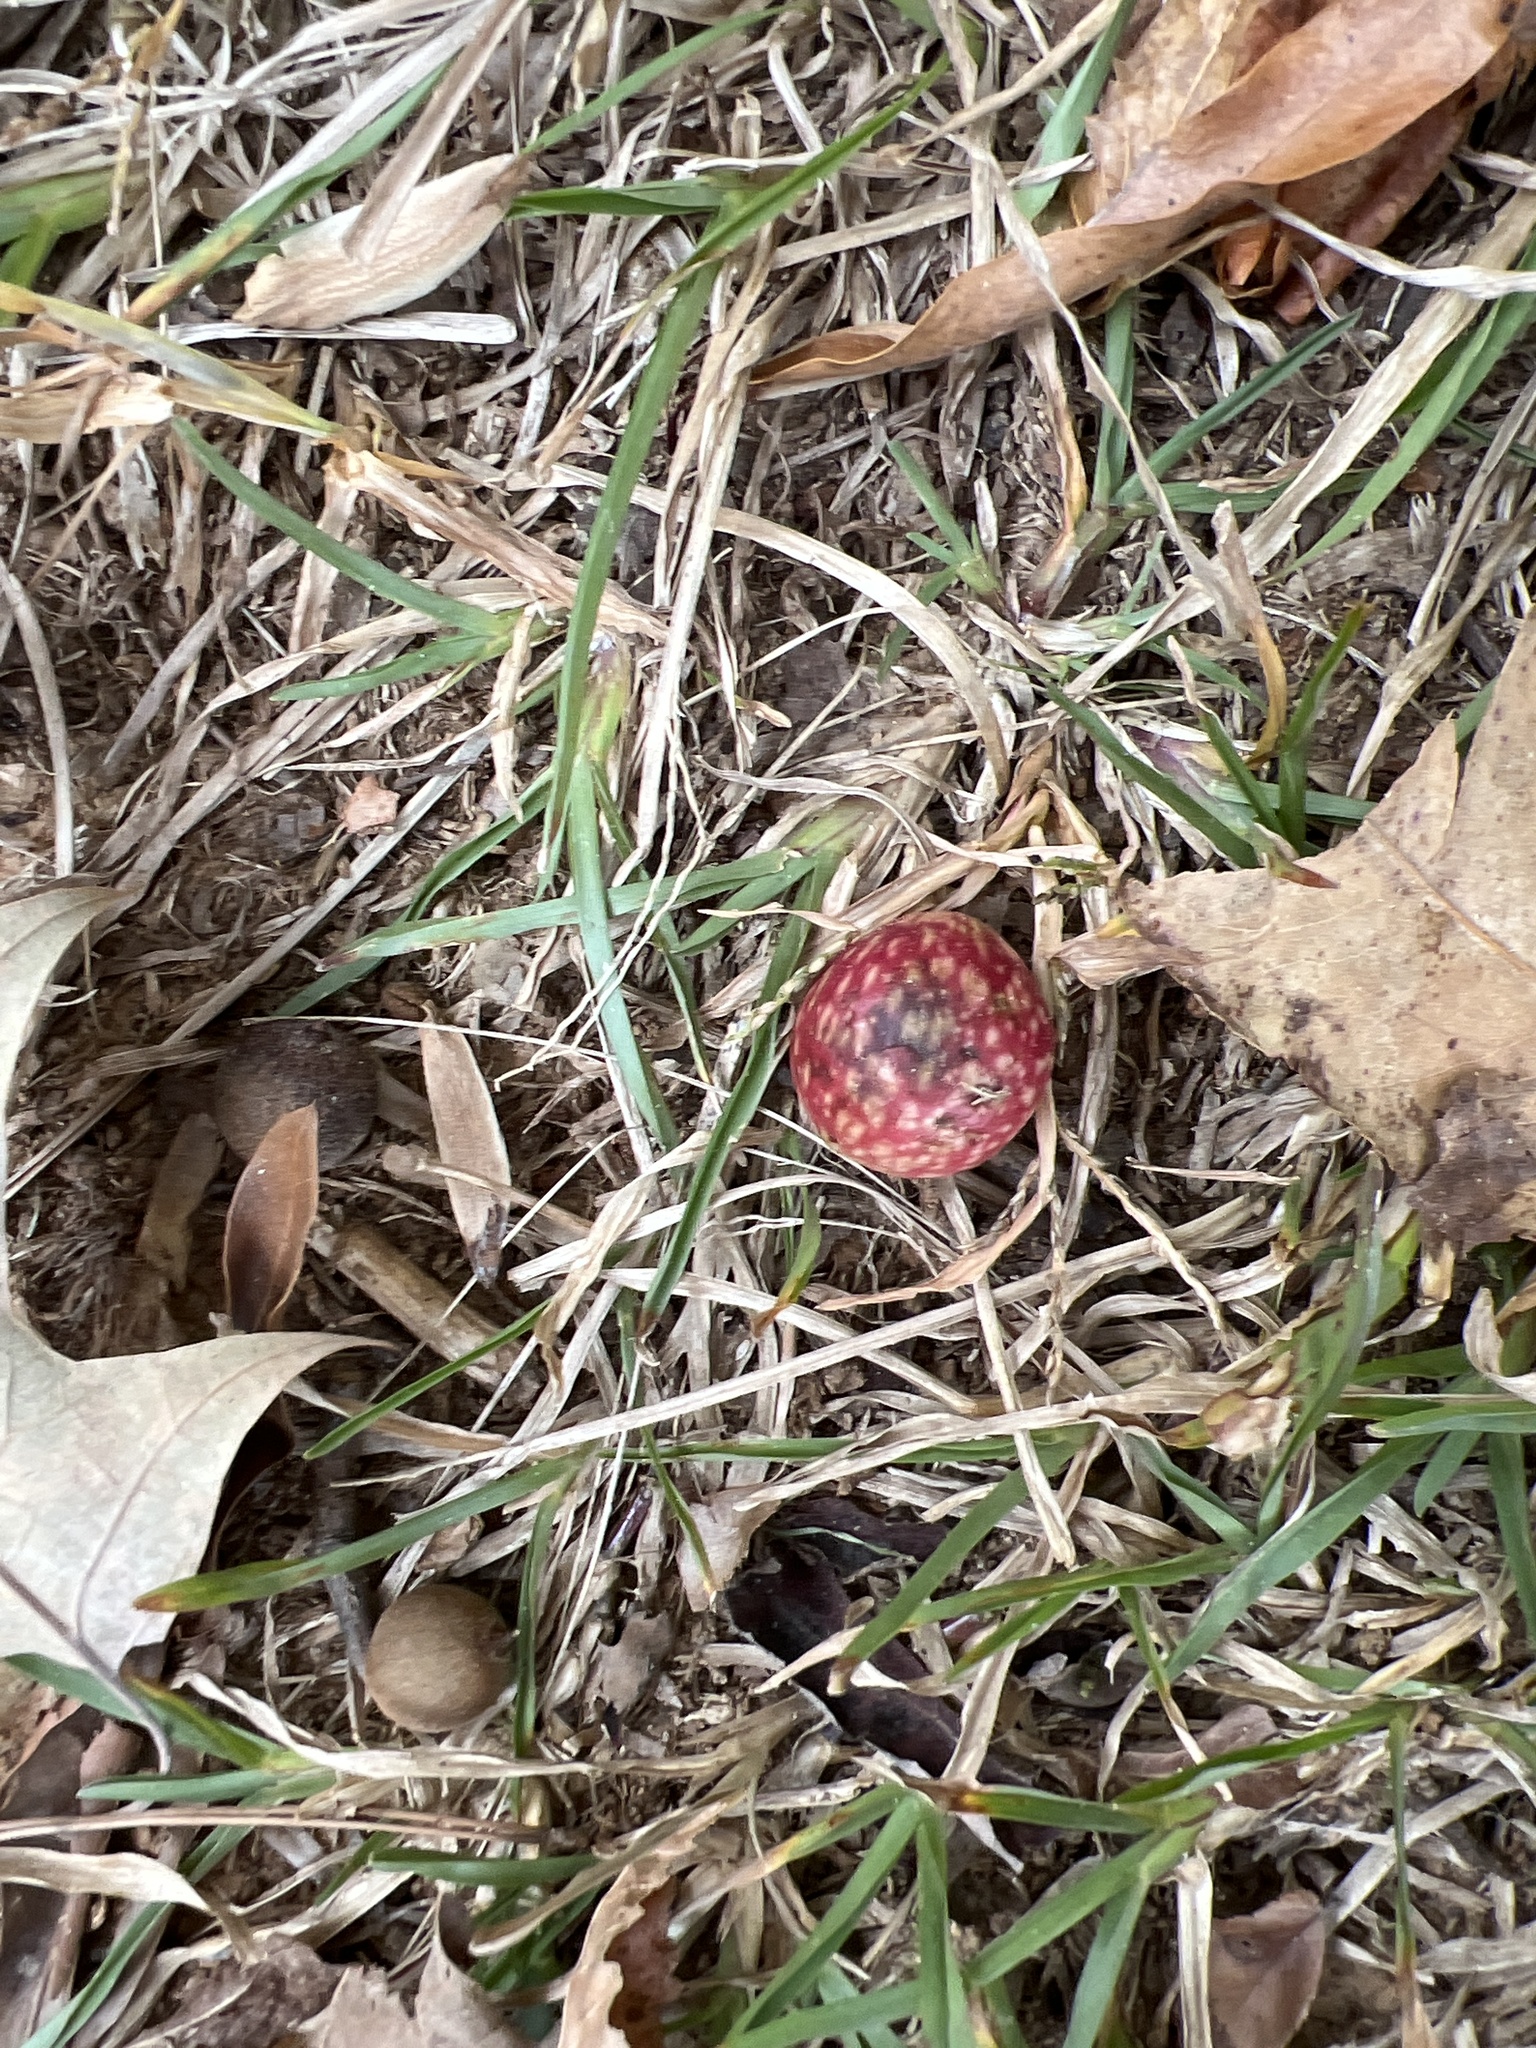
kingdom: Animalia
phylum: Arthropoda
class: Insecta
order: Hymenoptera
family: Cynipidae
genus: Amphibolips
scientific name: Amphibolips
